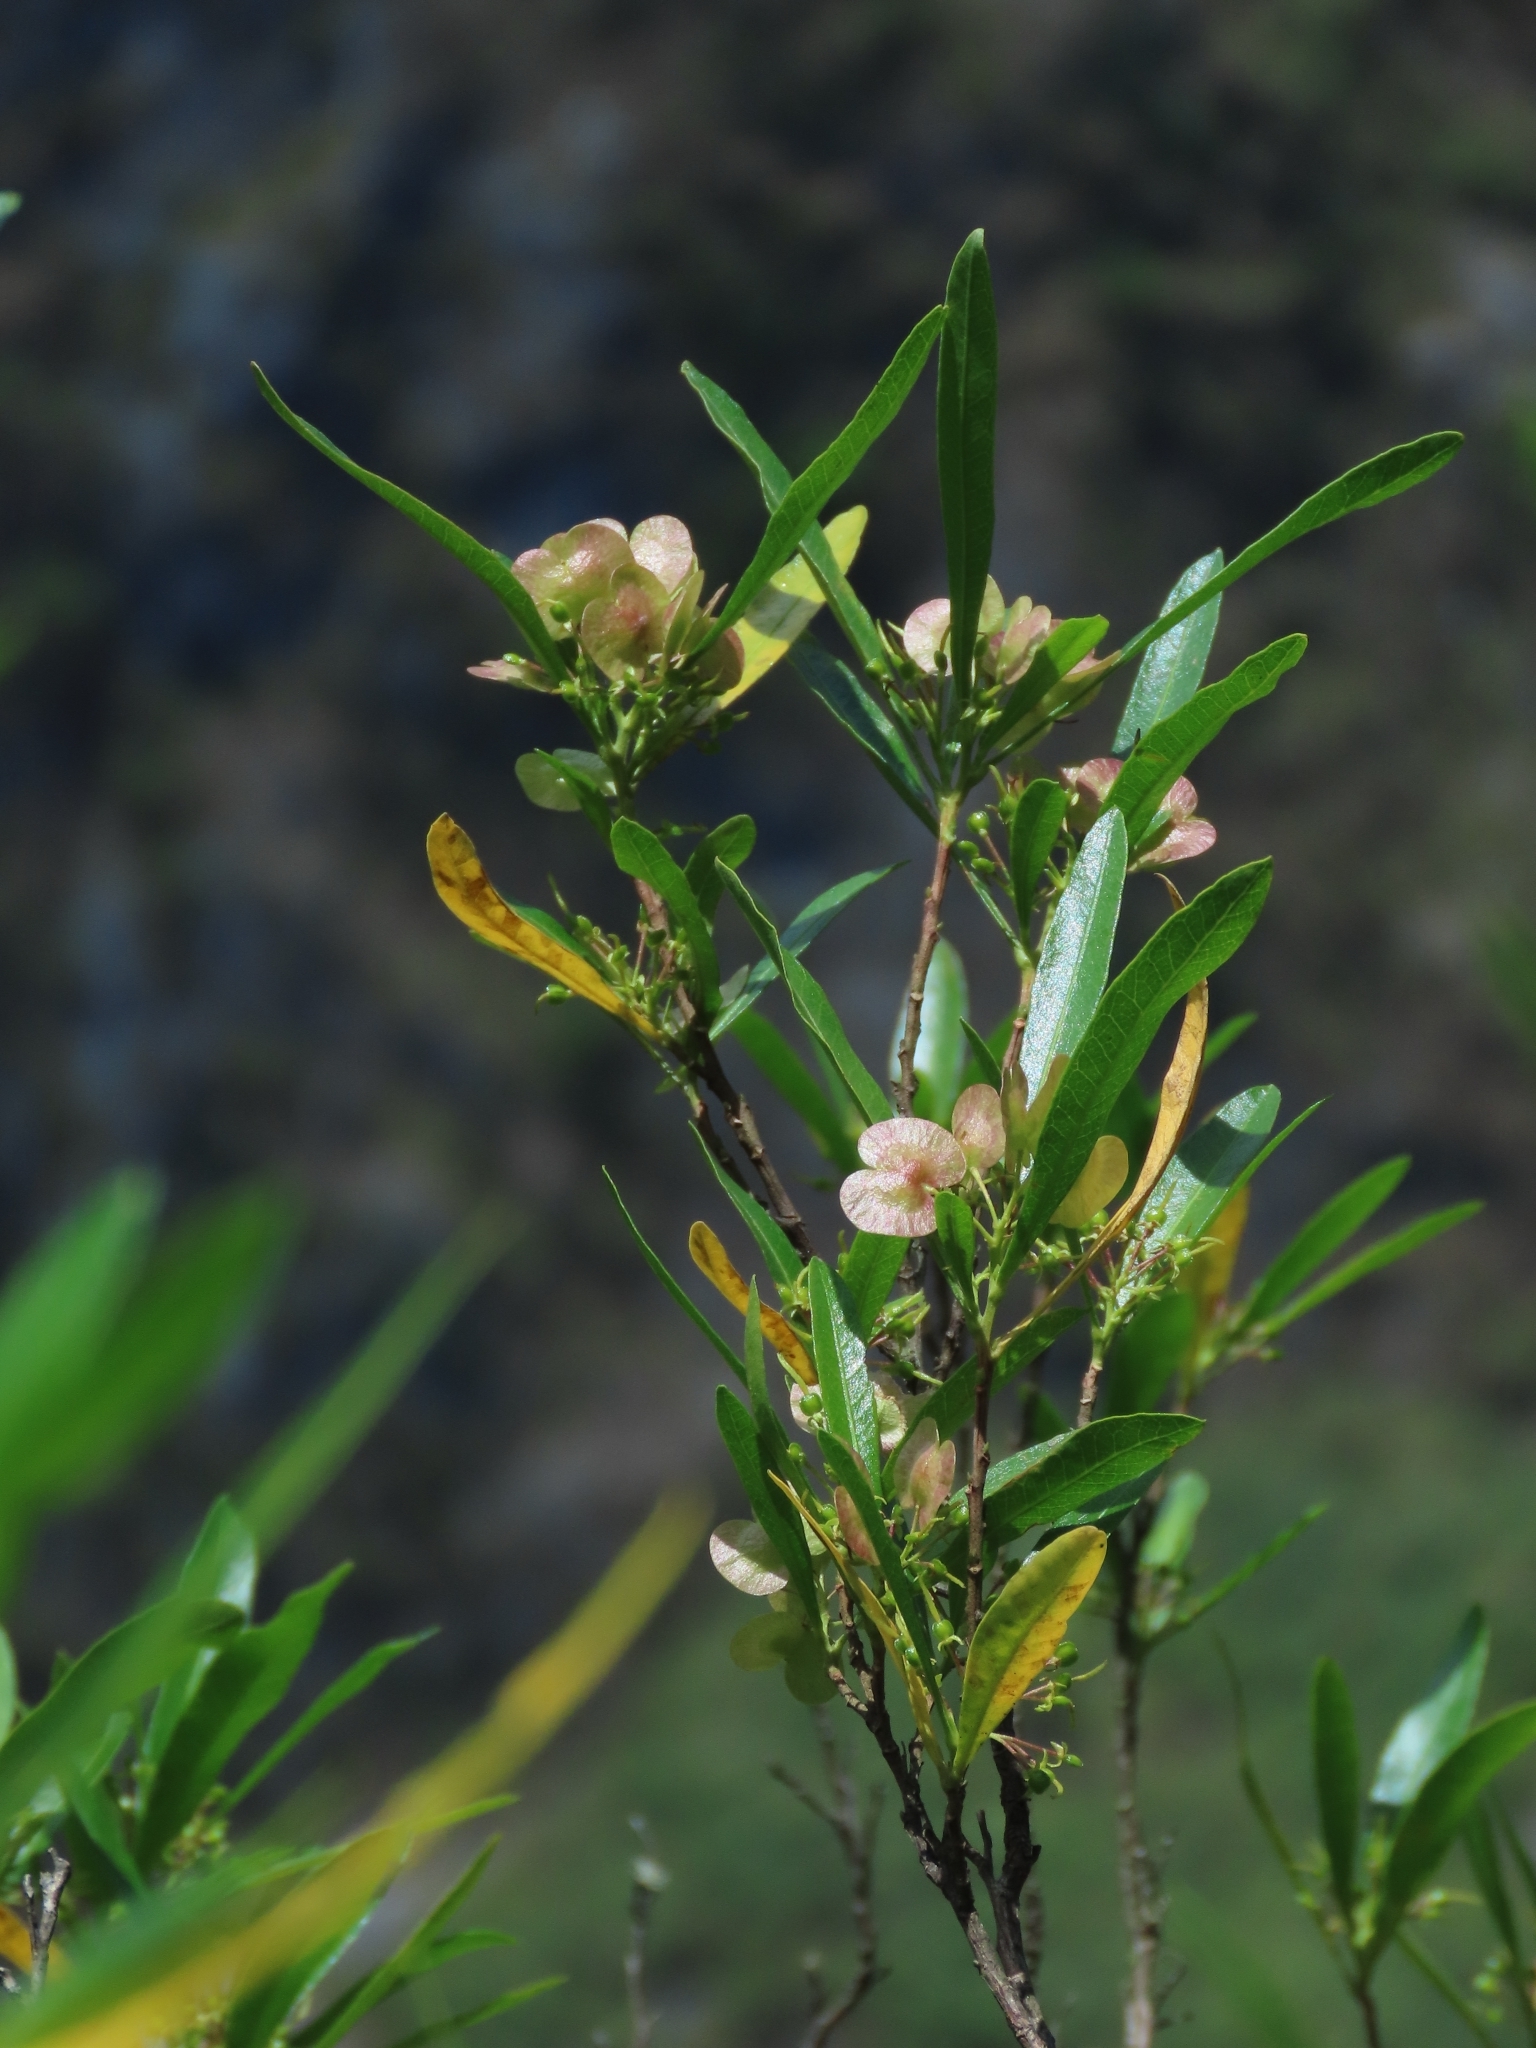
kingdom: Plantae
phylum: Tracheophyta
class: Magnoliopsida
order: Sapindales
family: Sapindaceae
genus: Dodonaea
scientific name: Dodonaea viscosa
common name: Hopbush
